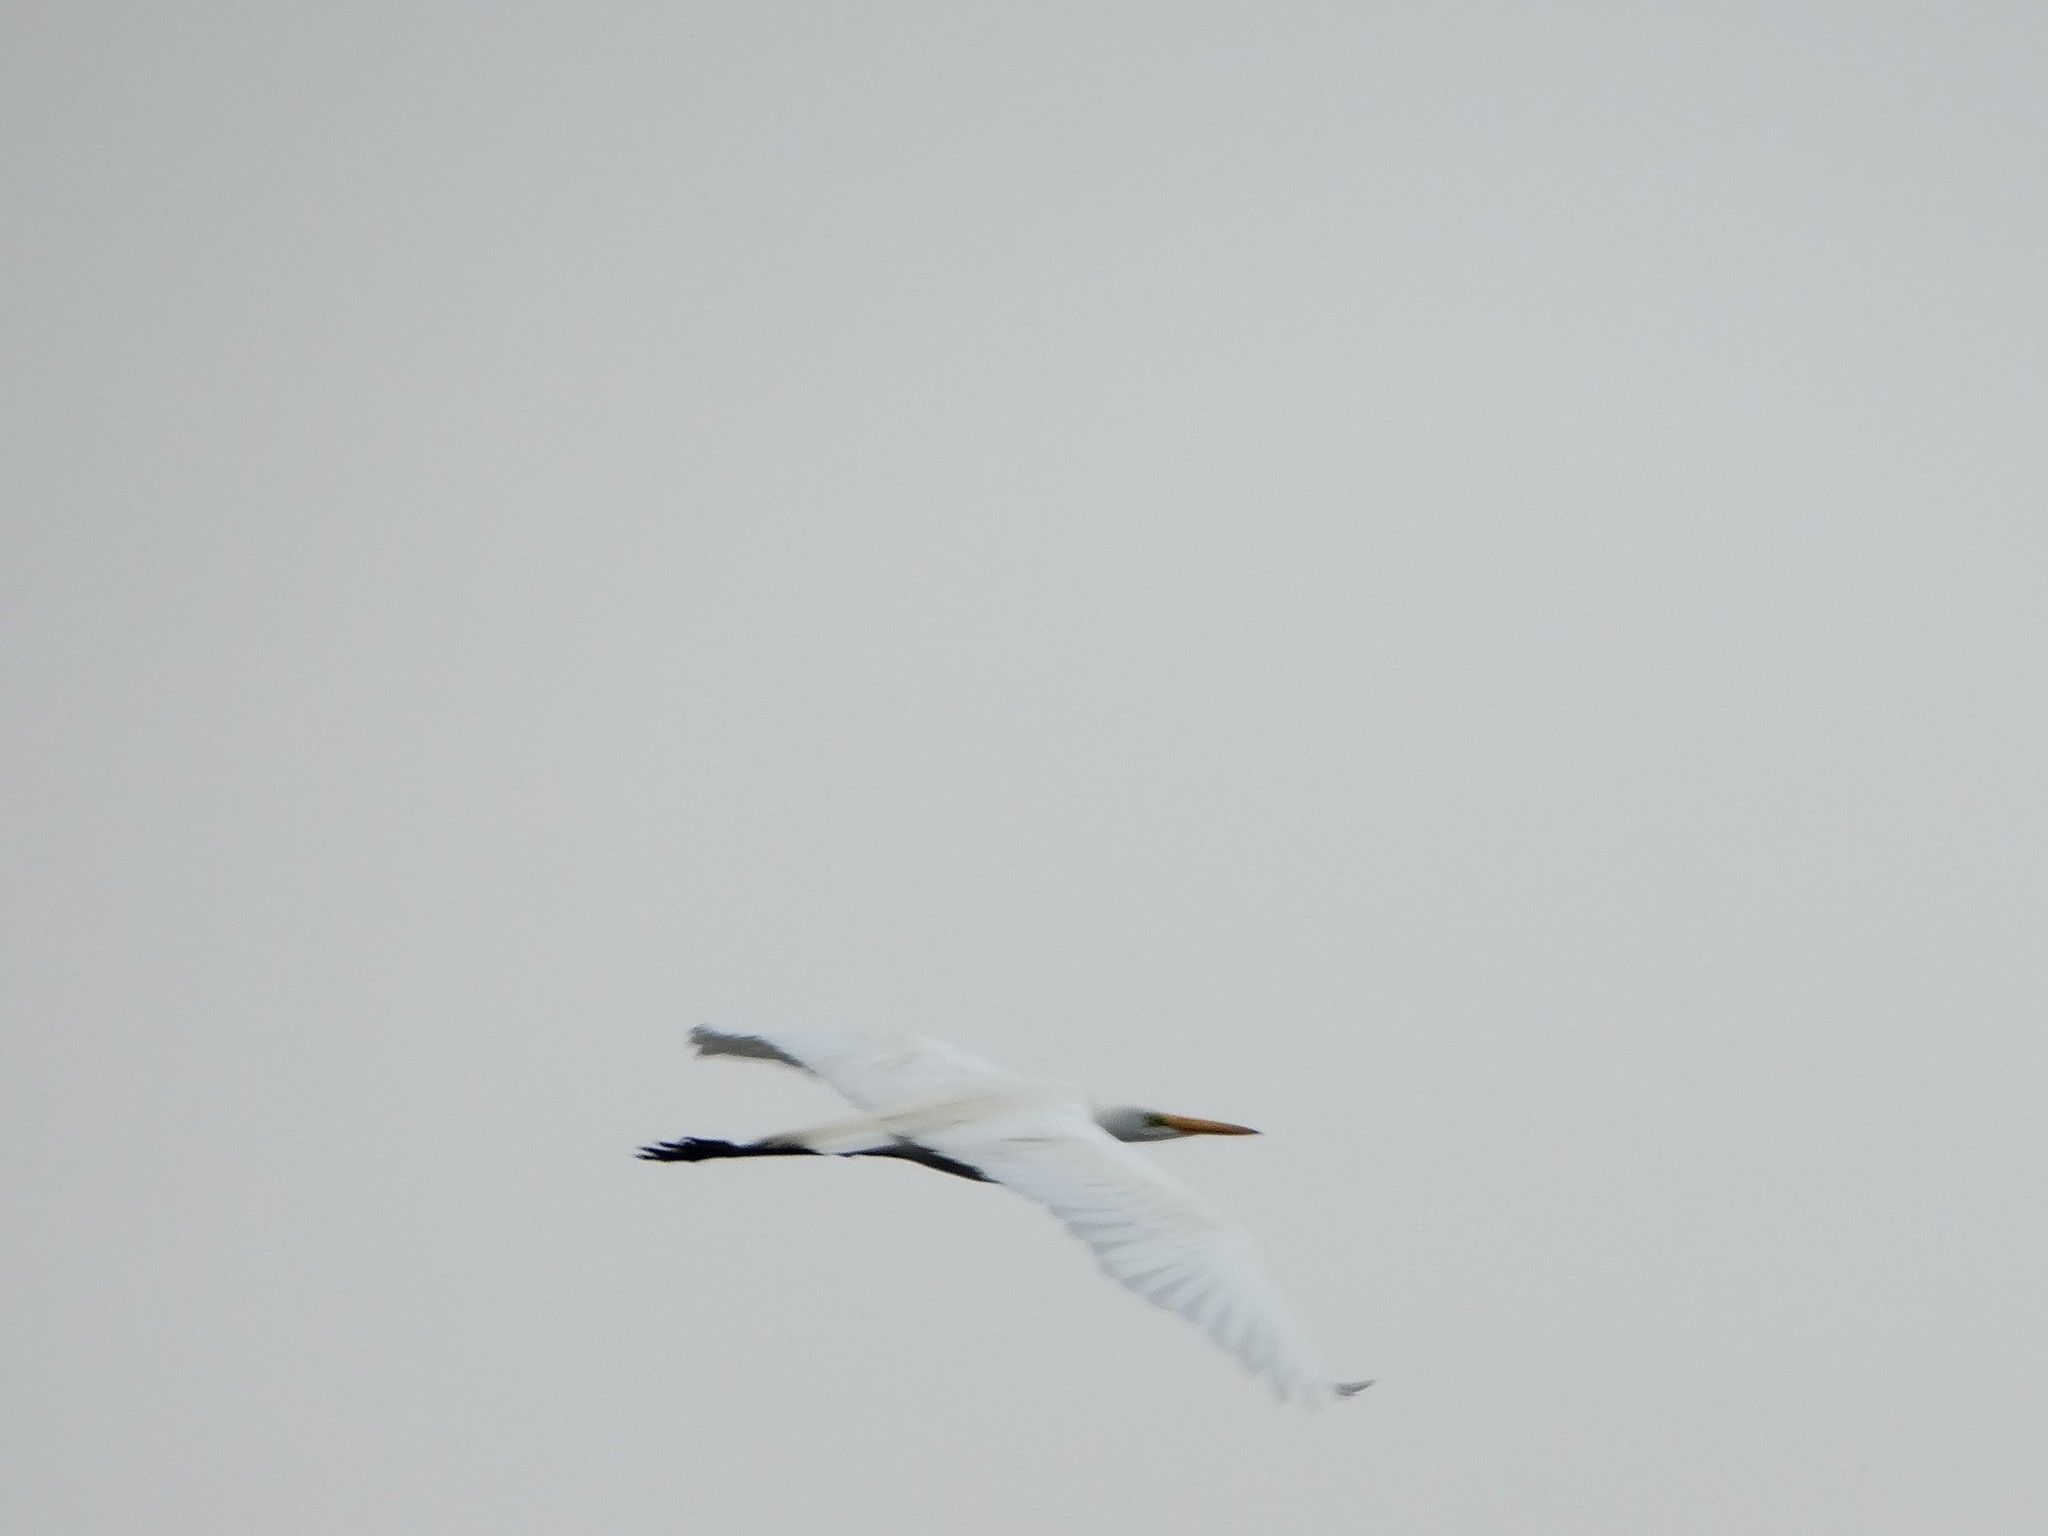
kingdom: Animalia
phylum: Chordata
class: Aves
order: Pelecaniformes
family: Ardeidae
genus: Ardea
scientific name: Ardea alba
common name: Great egret
